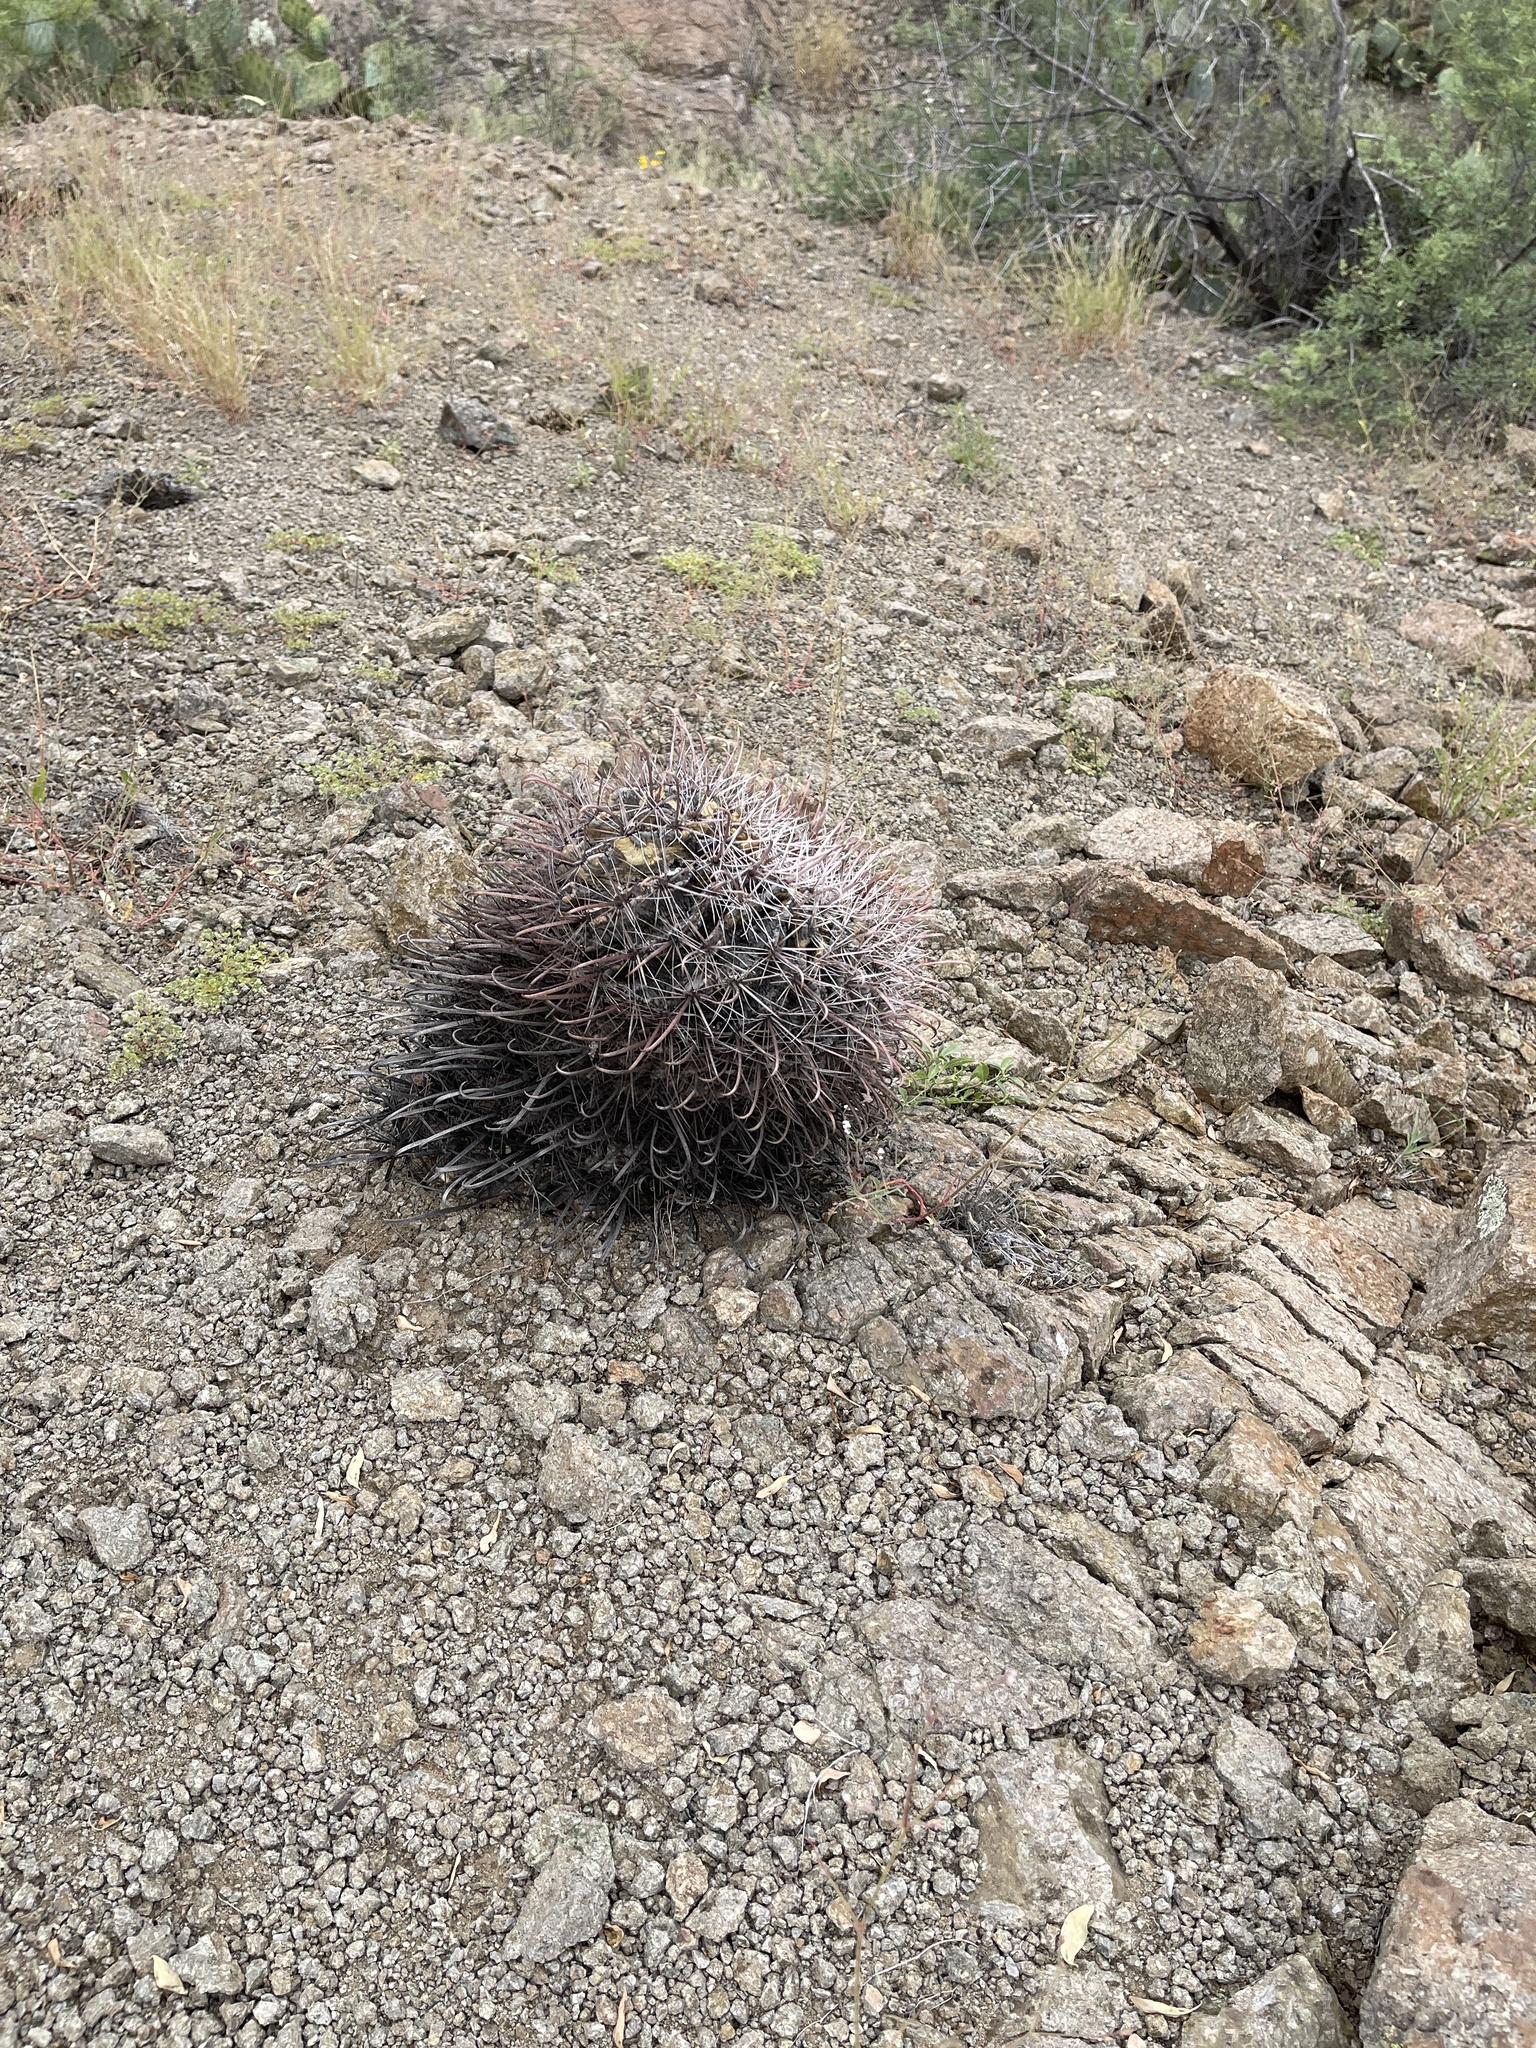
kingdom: Plantae
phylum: Tracheophyta
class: Magnoliopsida
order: Caryophyllales
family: Cactaceae
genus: Ferocactus
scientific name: Ferocactus wislizeni
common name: Candy barrel cactus
